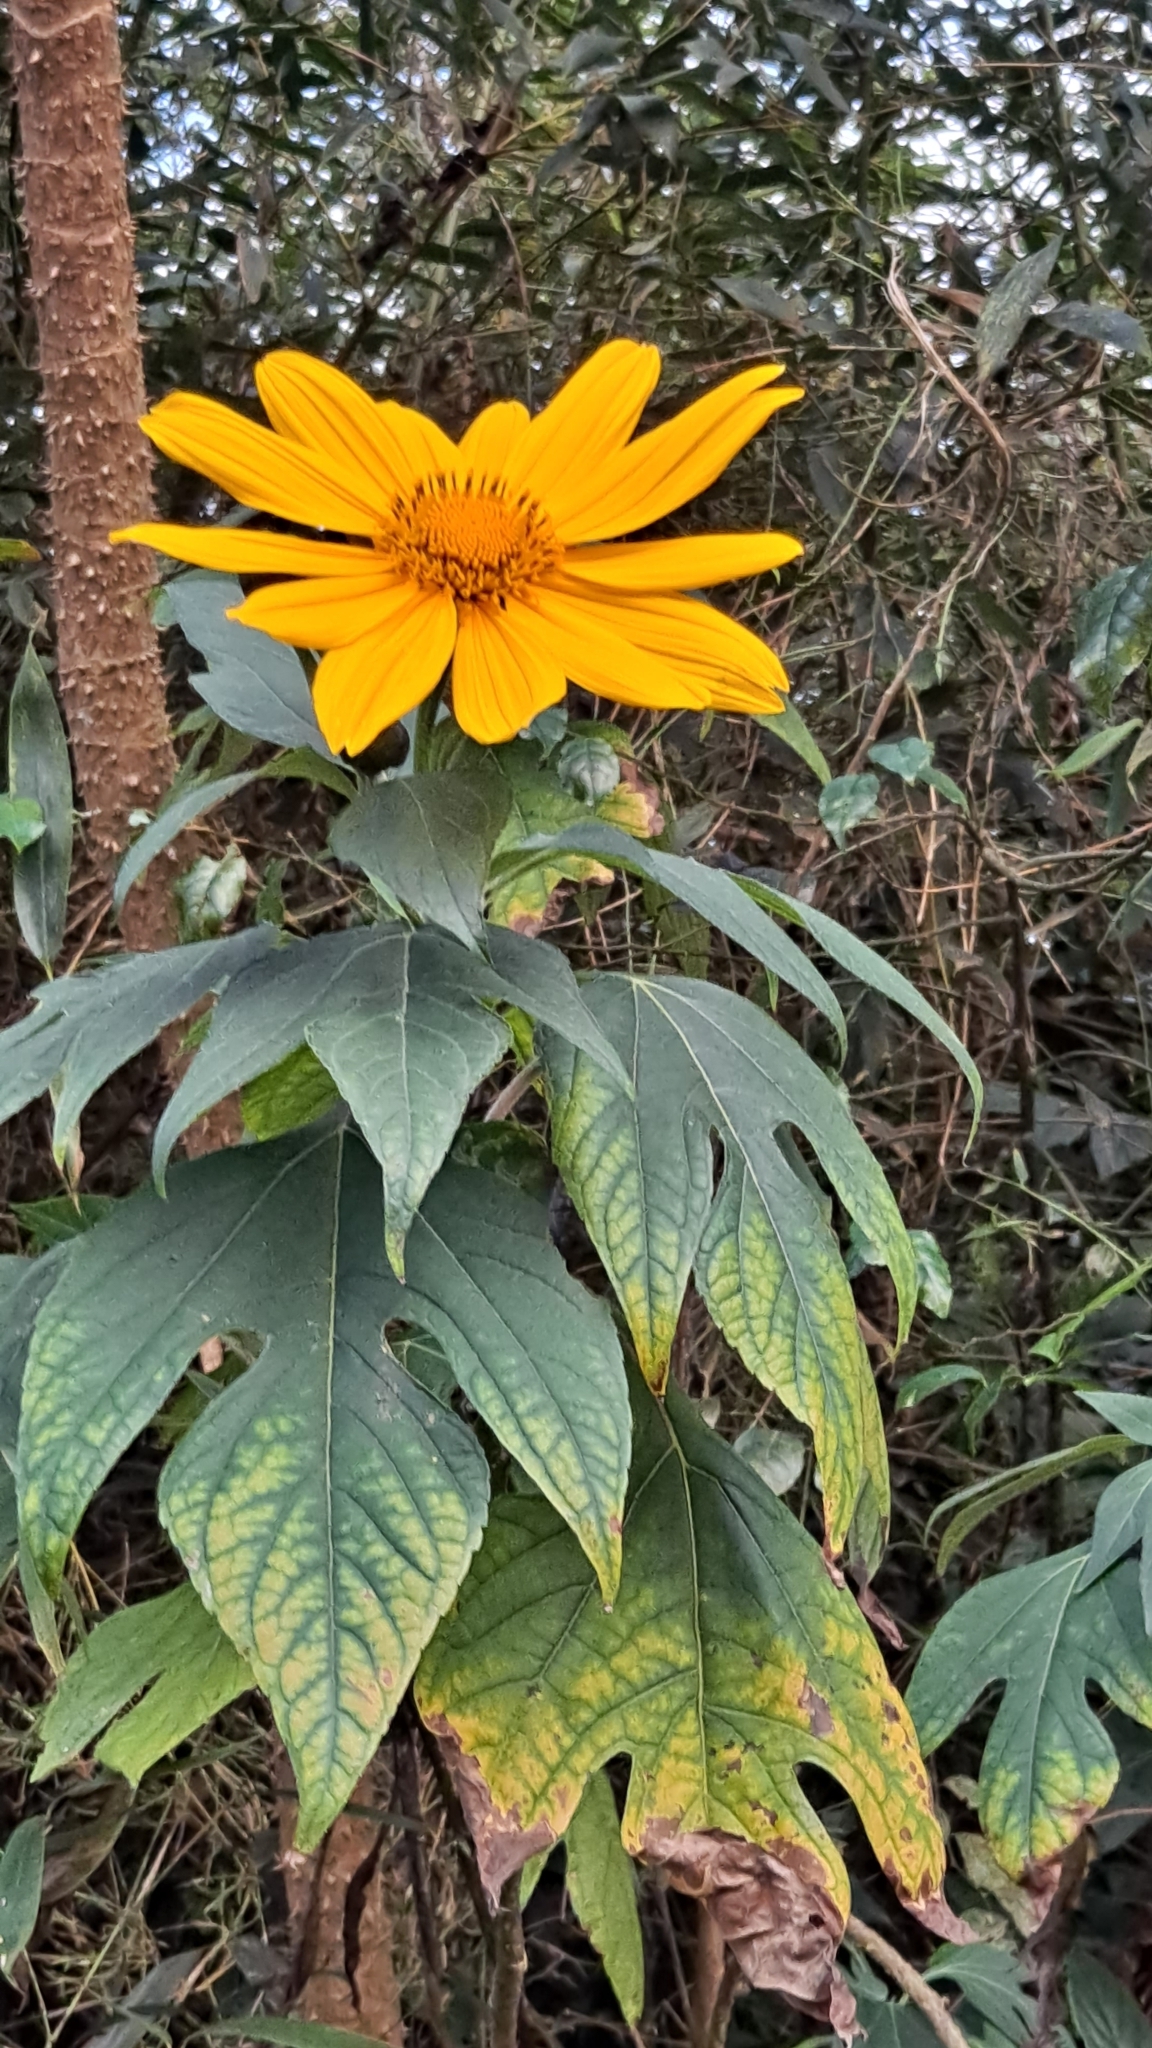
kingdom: Plantae
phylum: Tracheophyta
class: Magnoliopsida
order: Asterales
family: Asteraceae
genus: Tithonia
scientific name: Tithonia diversifolia
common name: Tree marigold
